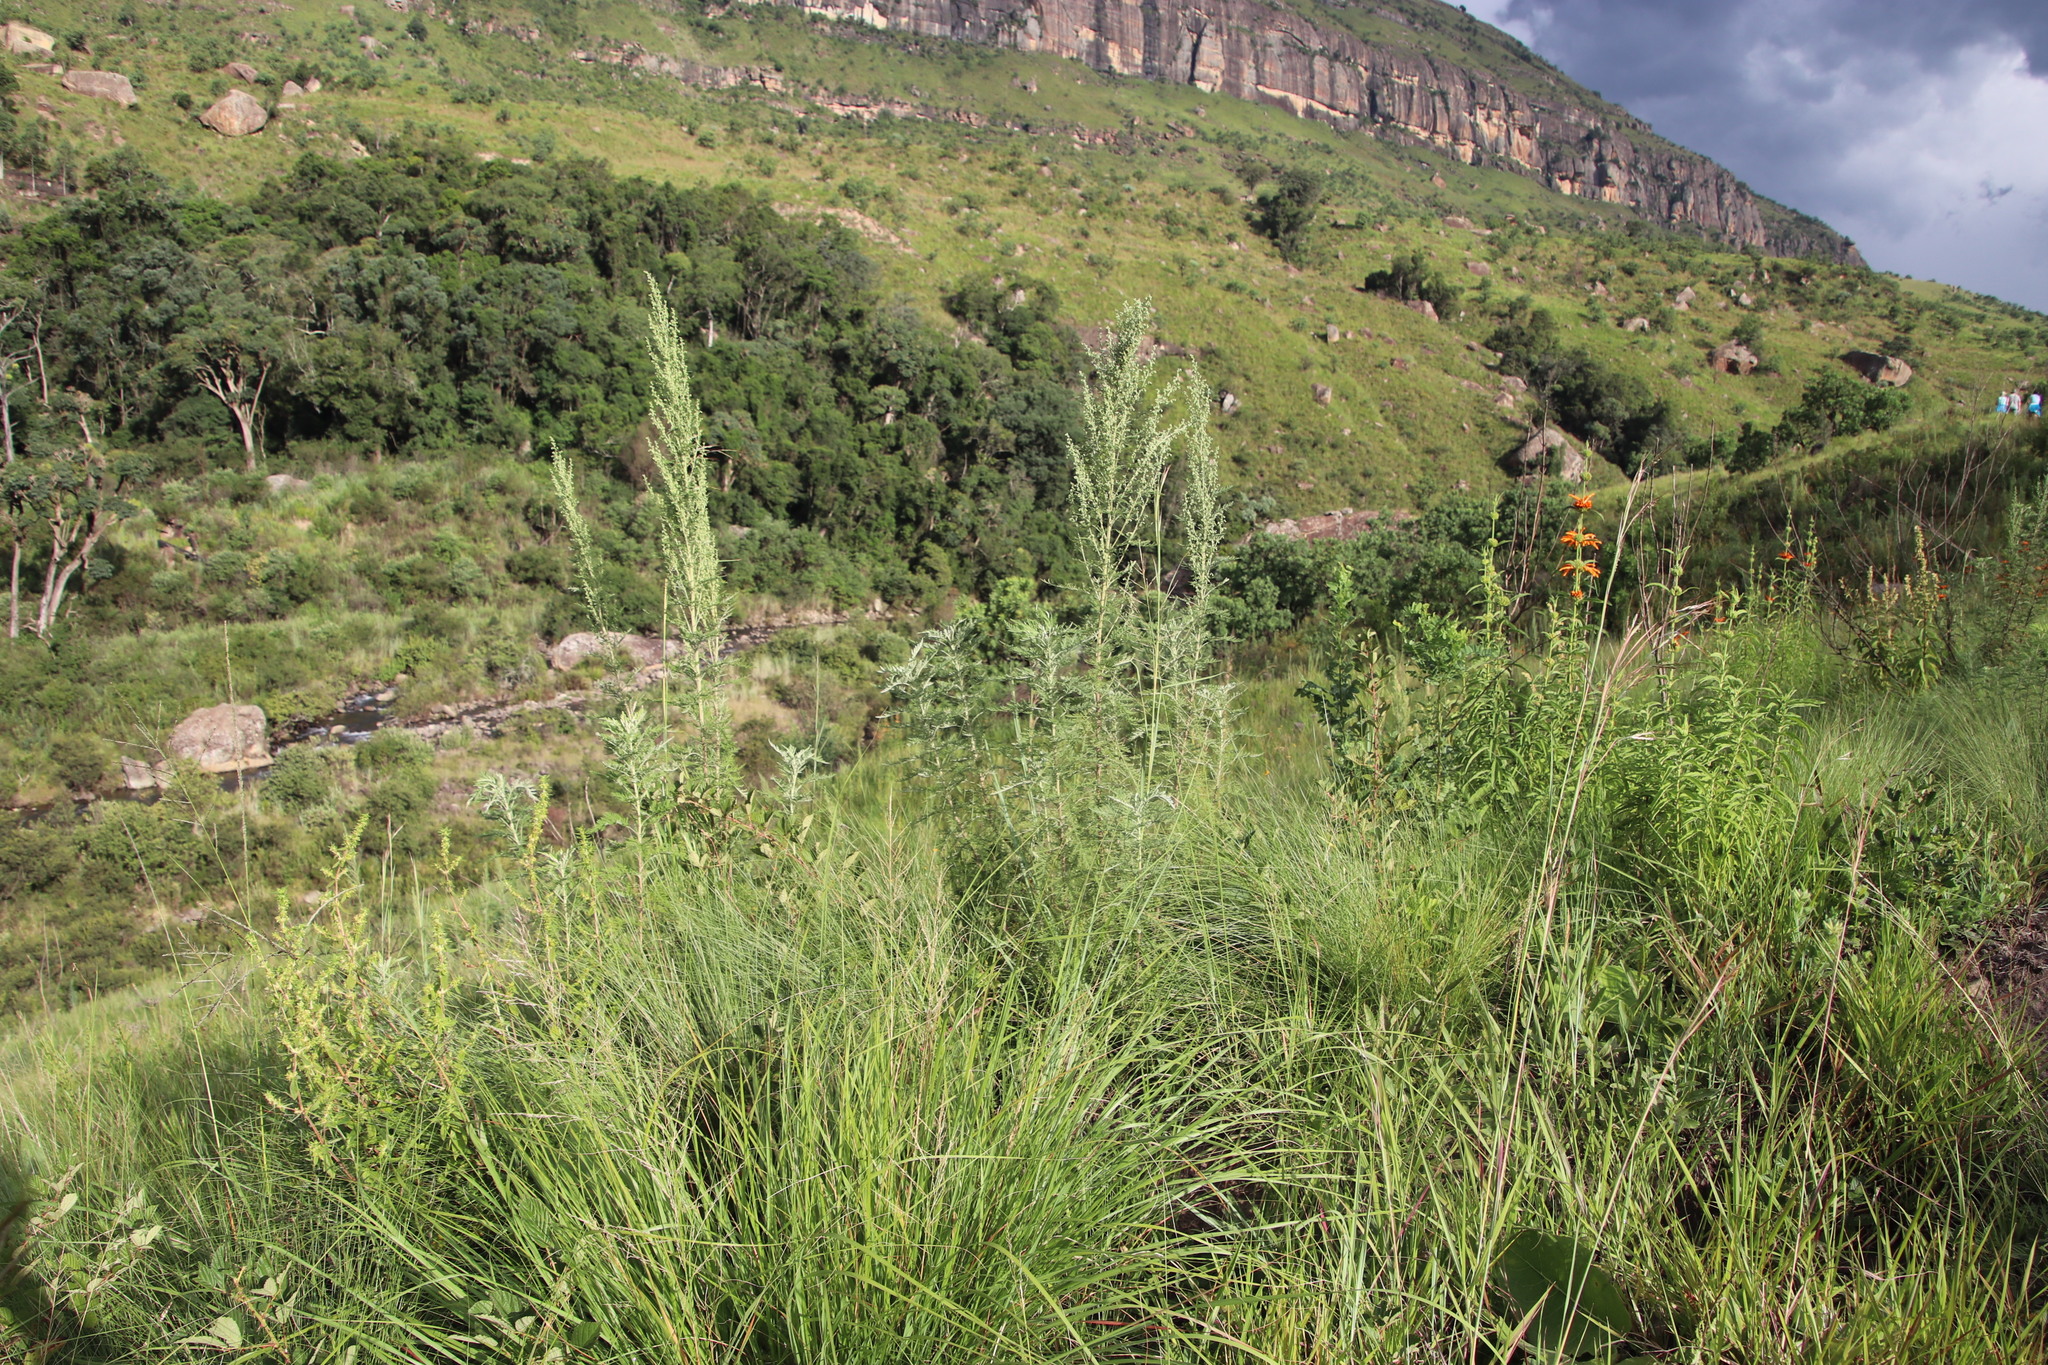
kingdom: Plantae
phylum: Tracheophyta
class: Magnoliopsida
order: Asterales
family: Asteraceae
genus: Artemisia
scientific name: Artemisia afra
